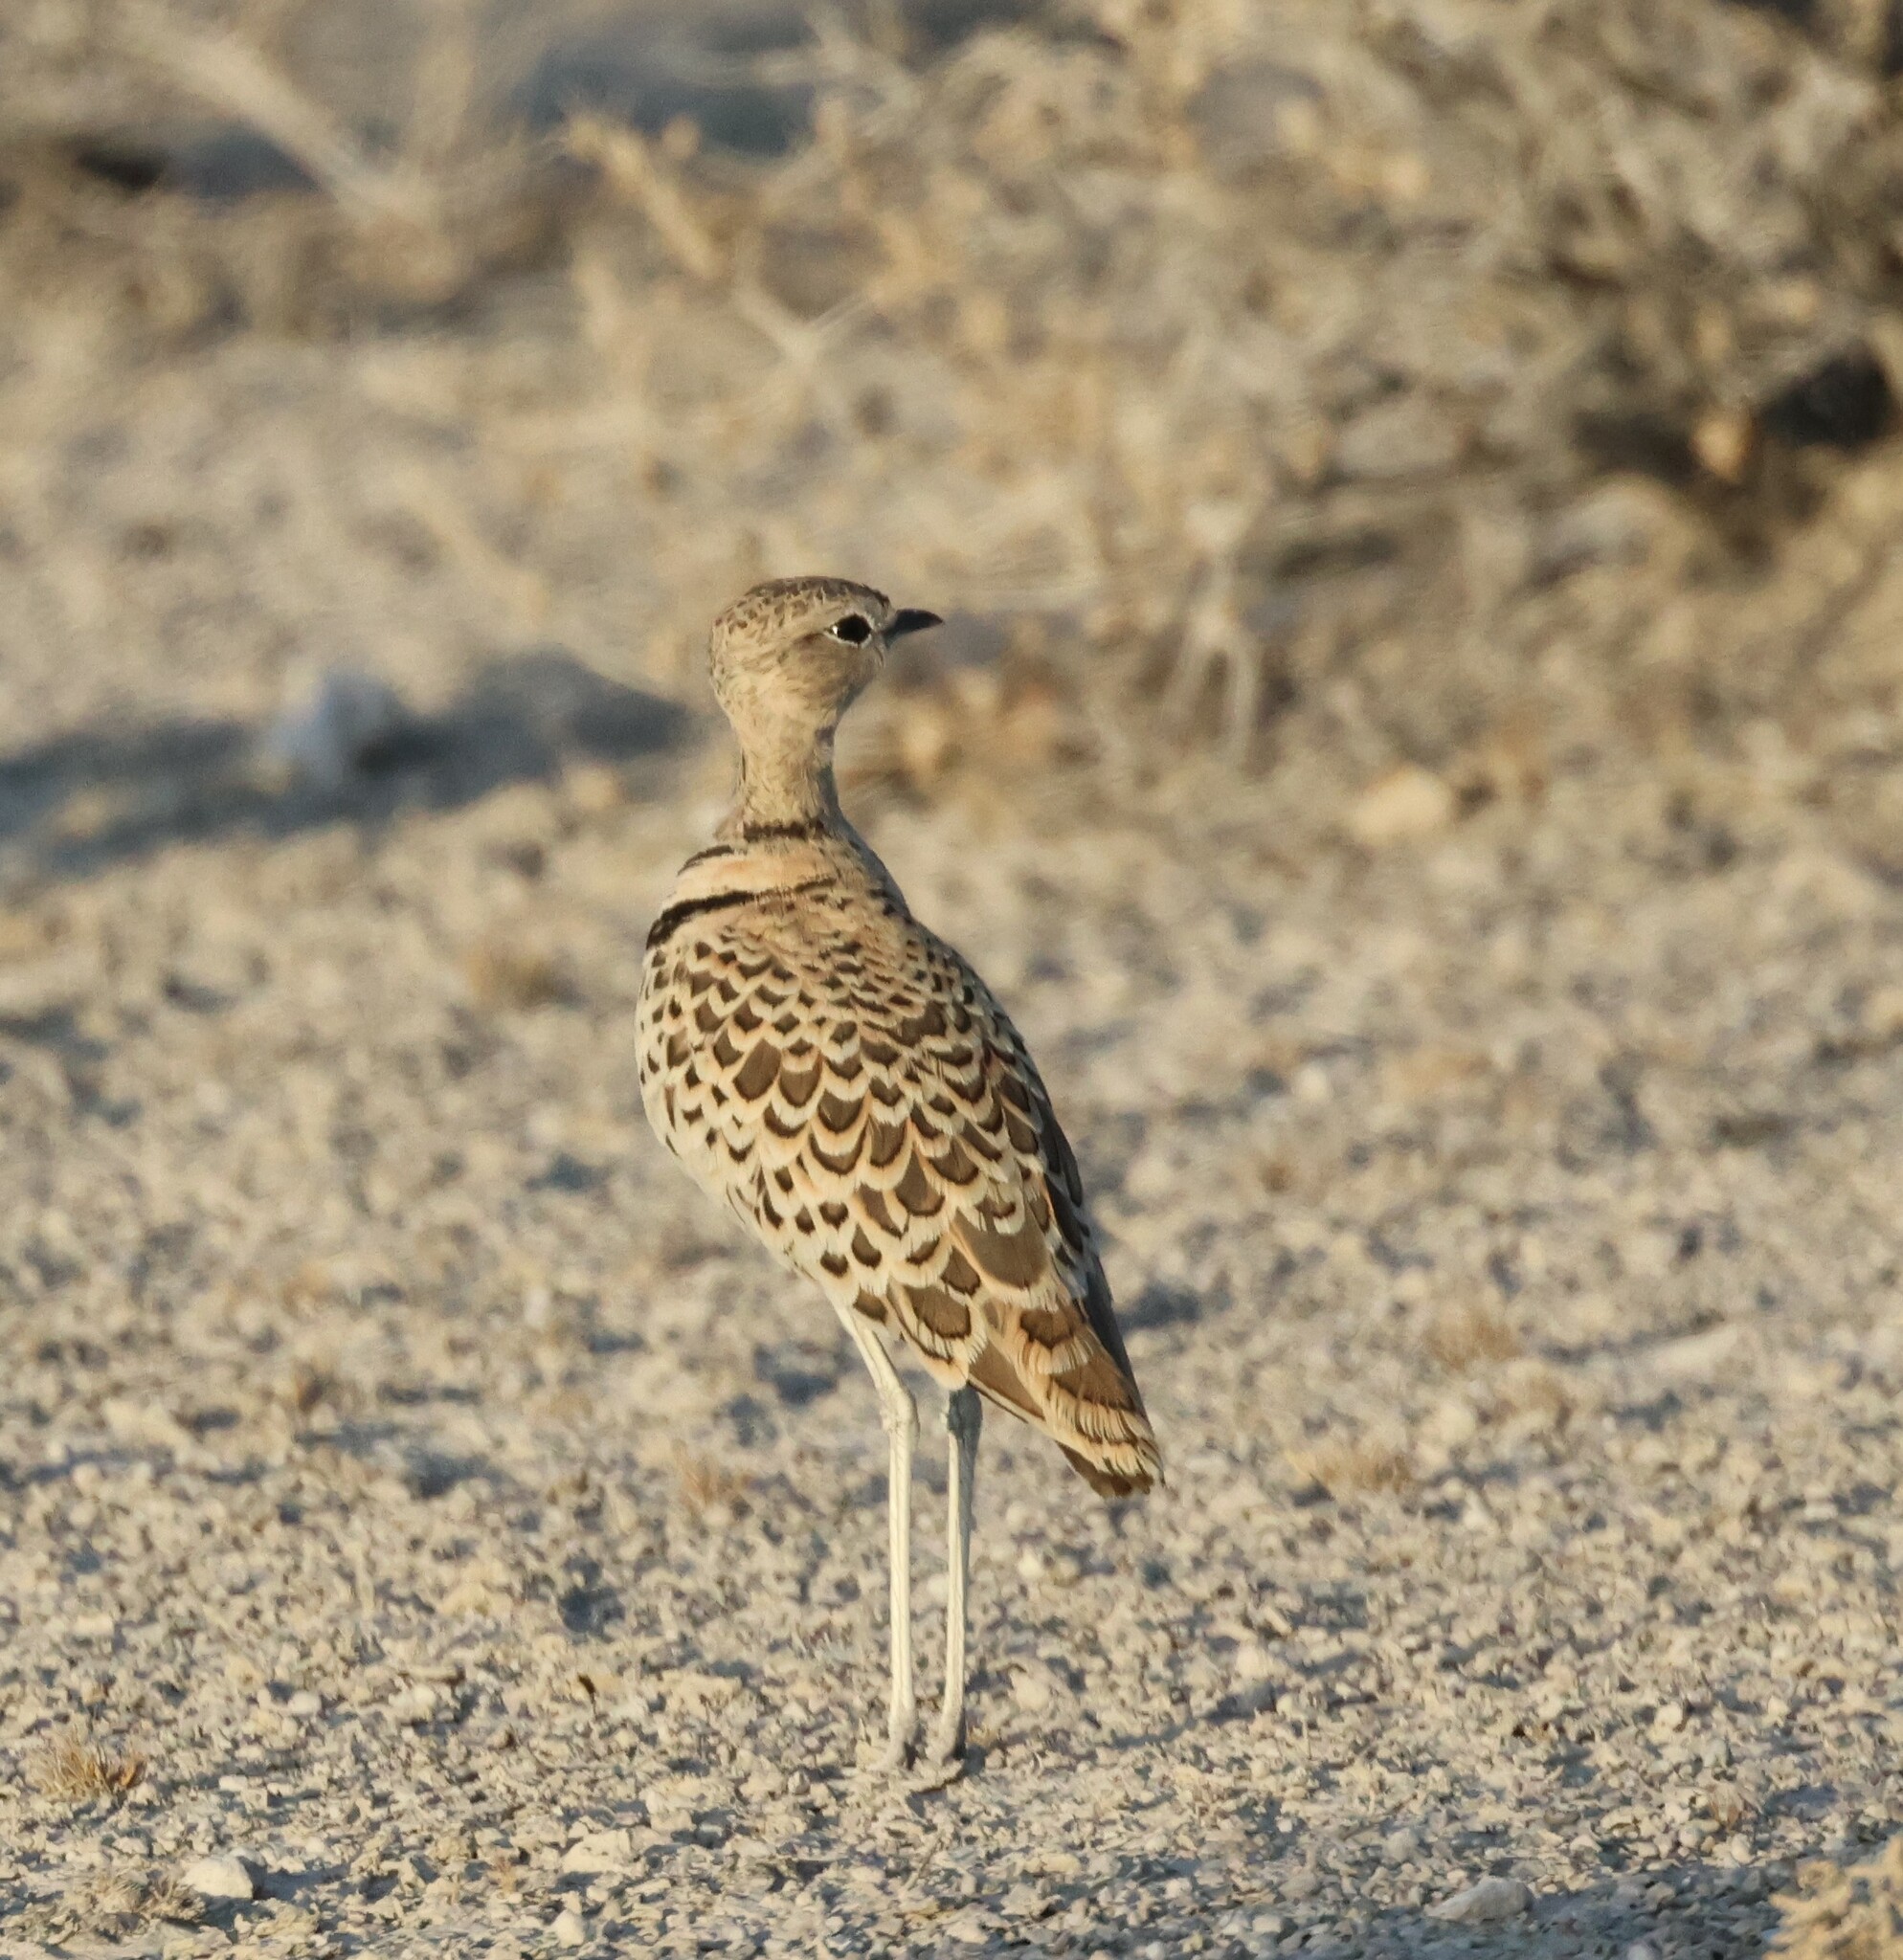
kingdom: Animalia
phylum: Chordata
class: Aves
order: Charadriiformes
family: Glareolidae
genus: Rhinoptilus
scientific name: Rhinoptilus africanus
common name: Double-banded courser
